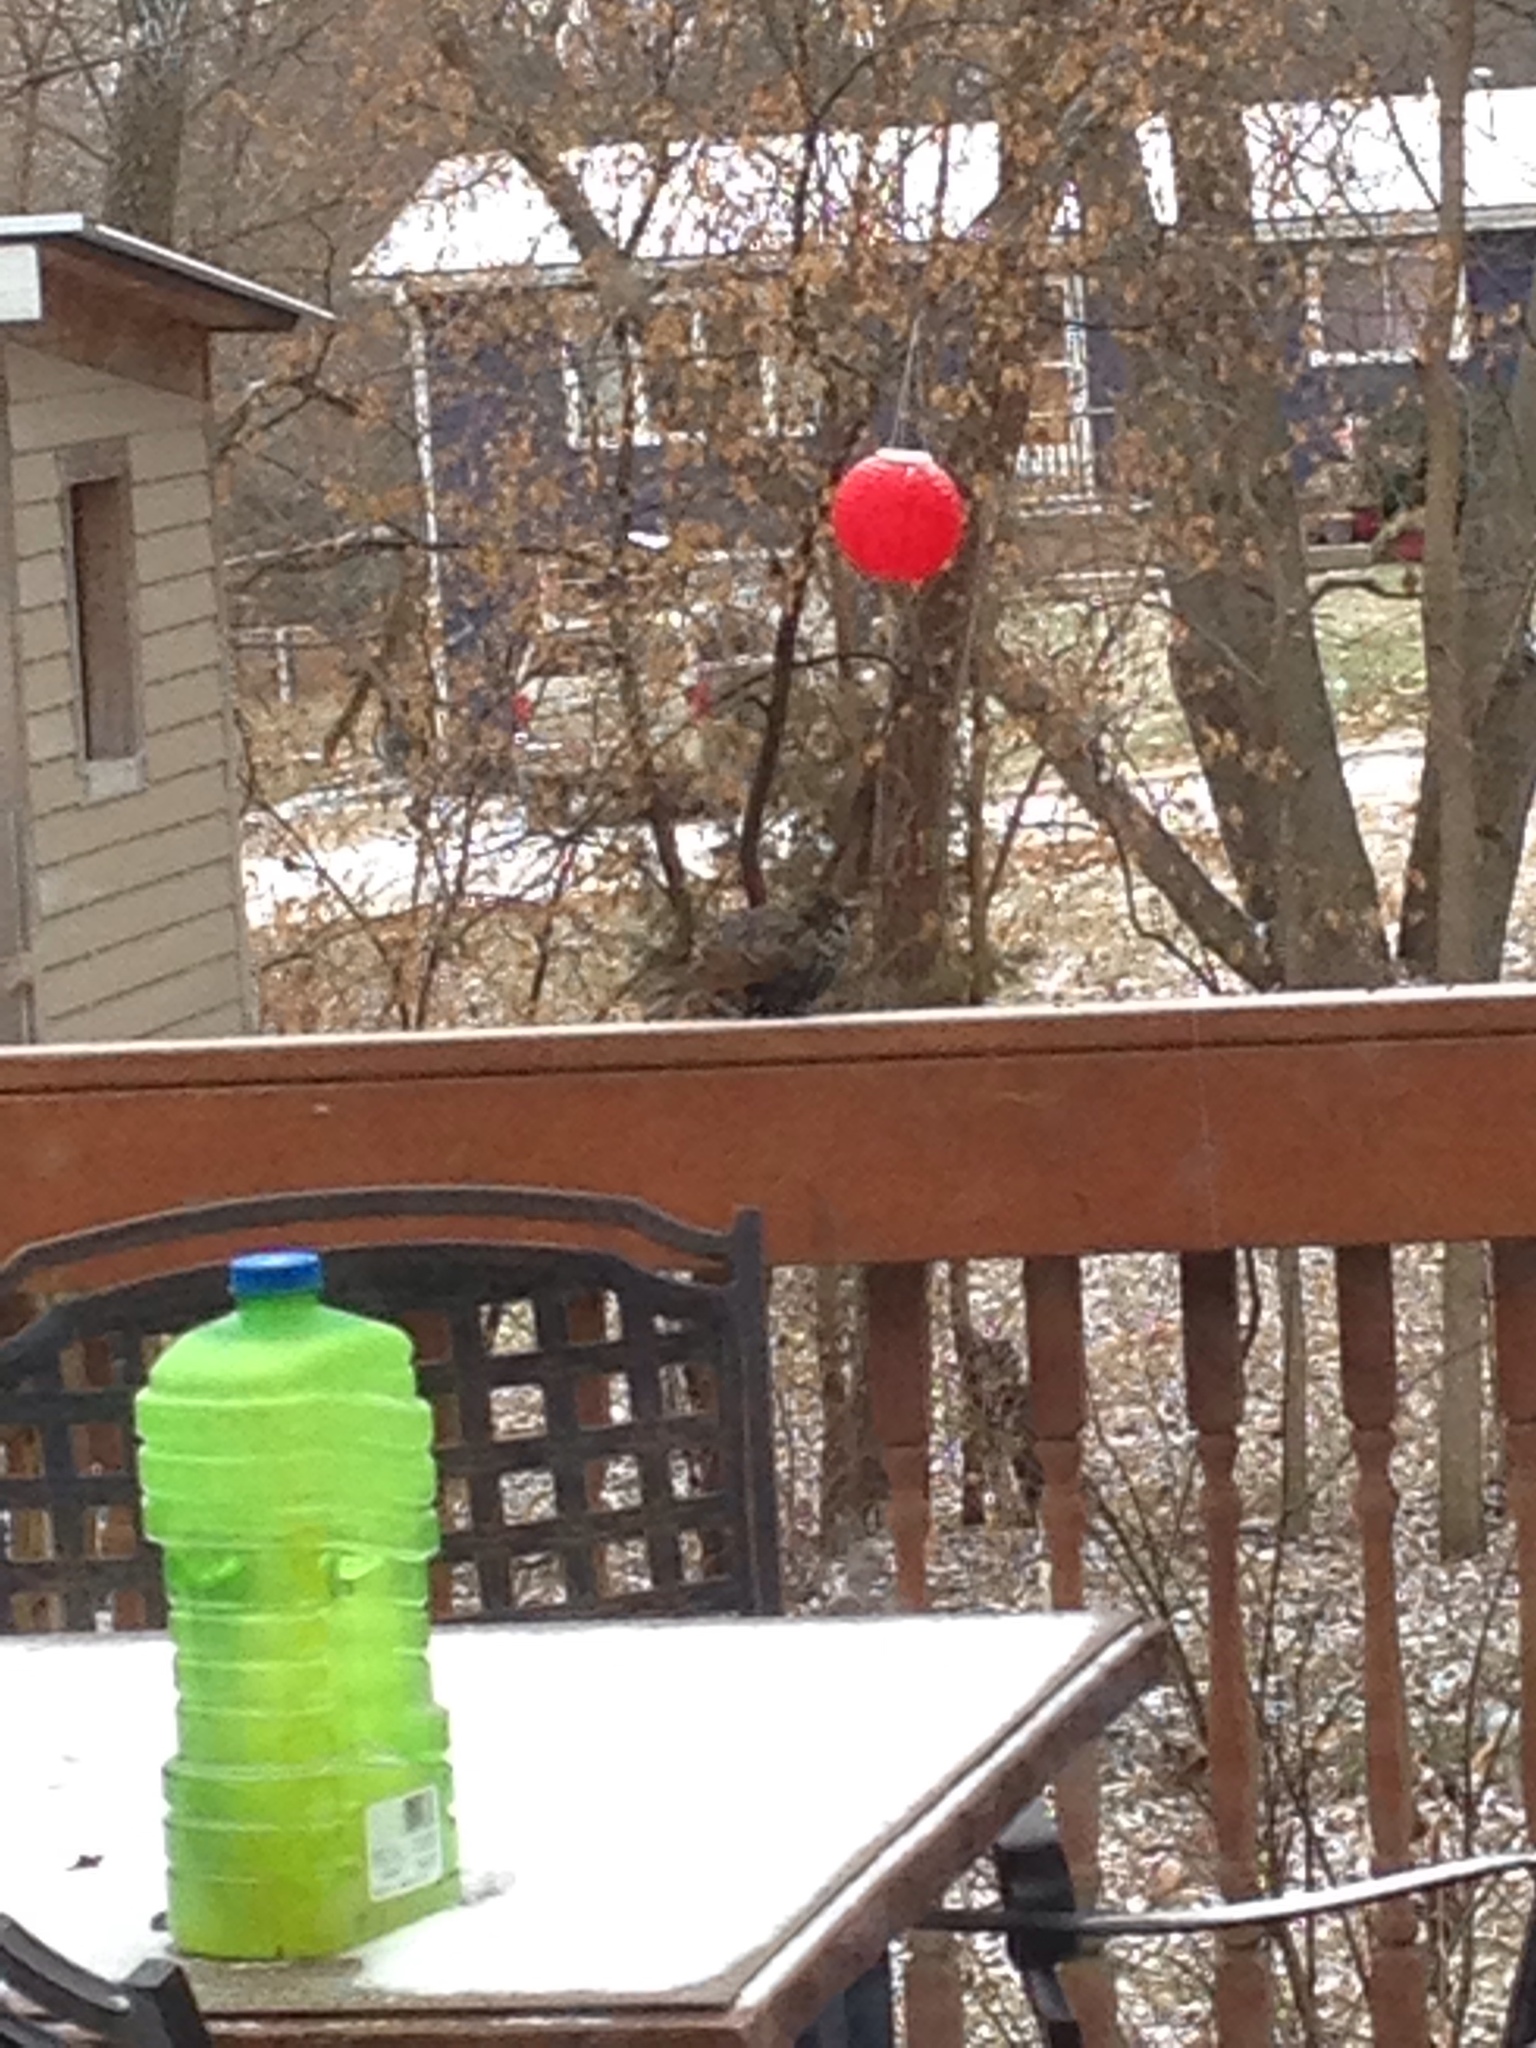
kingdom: Animalia
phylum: Chordata
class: Aves
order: Passeriformes
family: Sturnidae
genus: Sturnus
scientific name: Sturnus vulgaris
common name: Common starling
